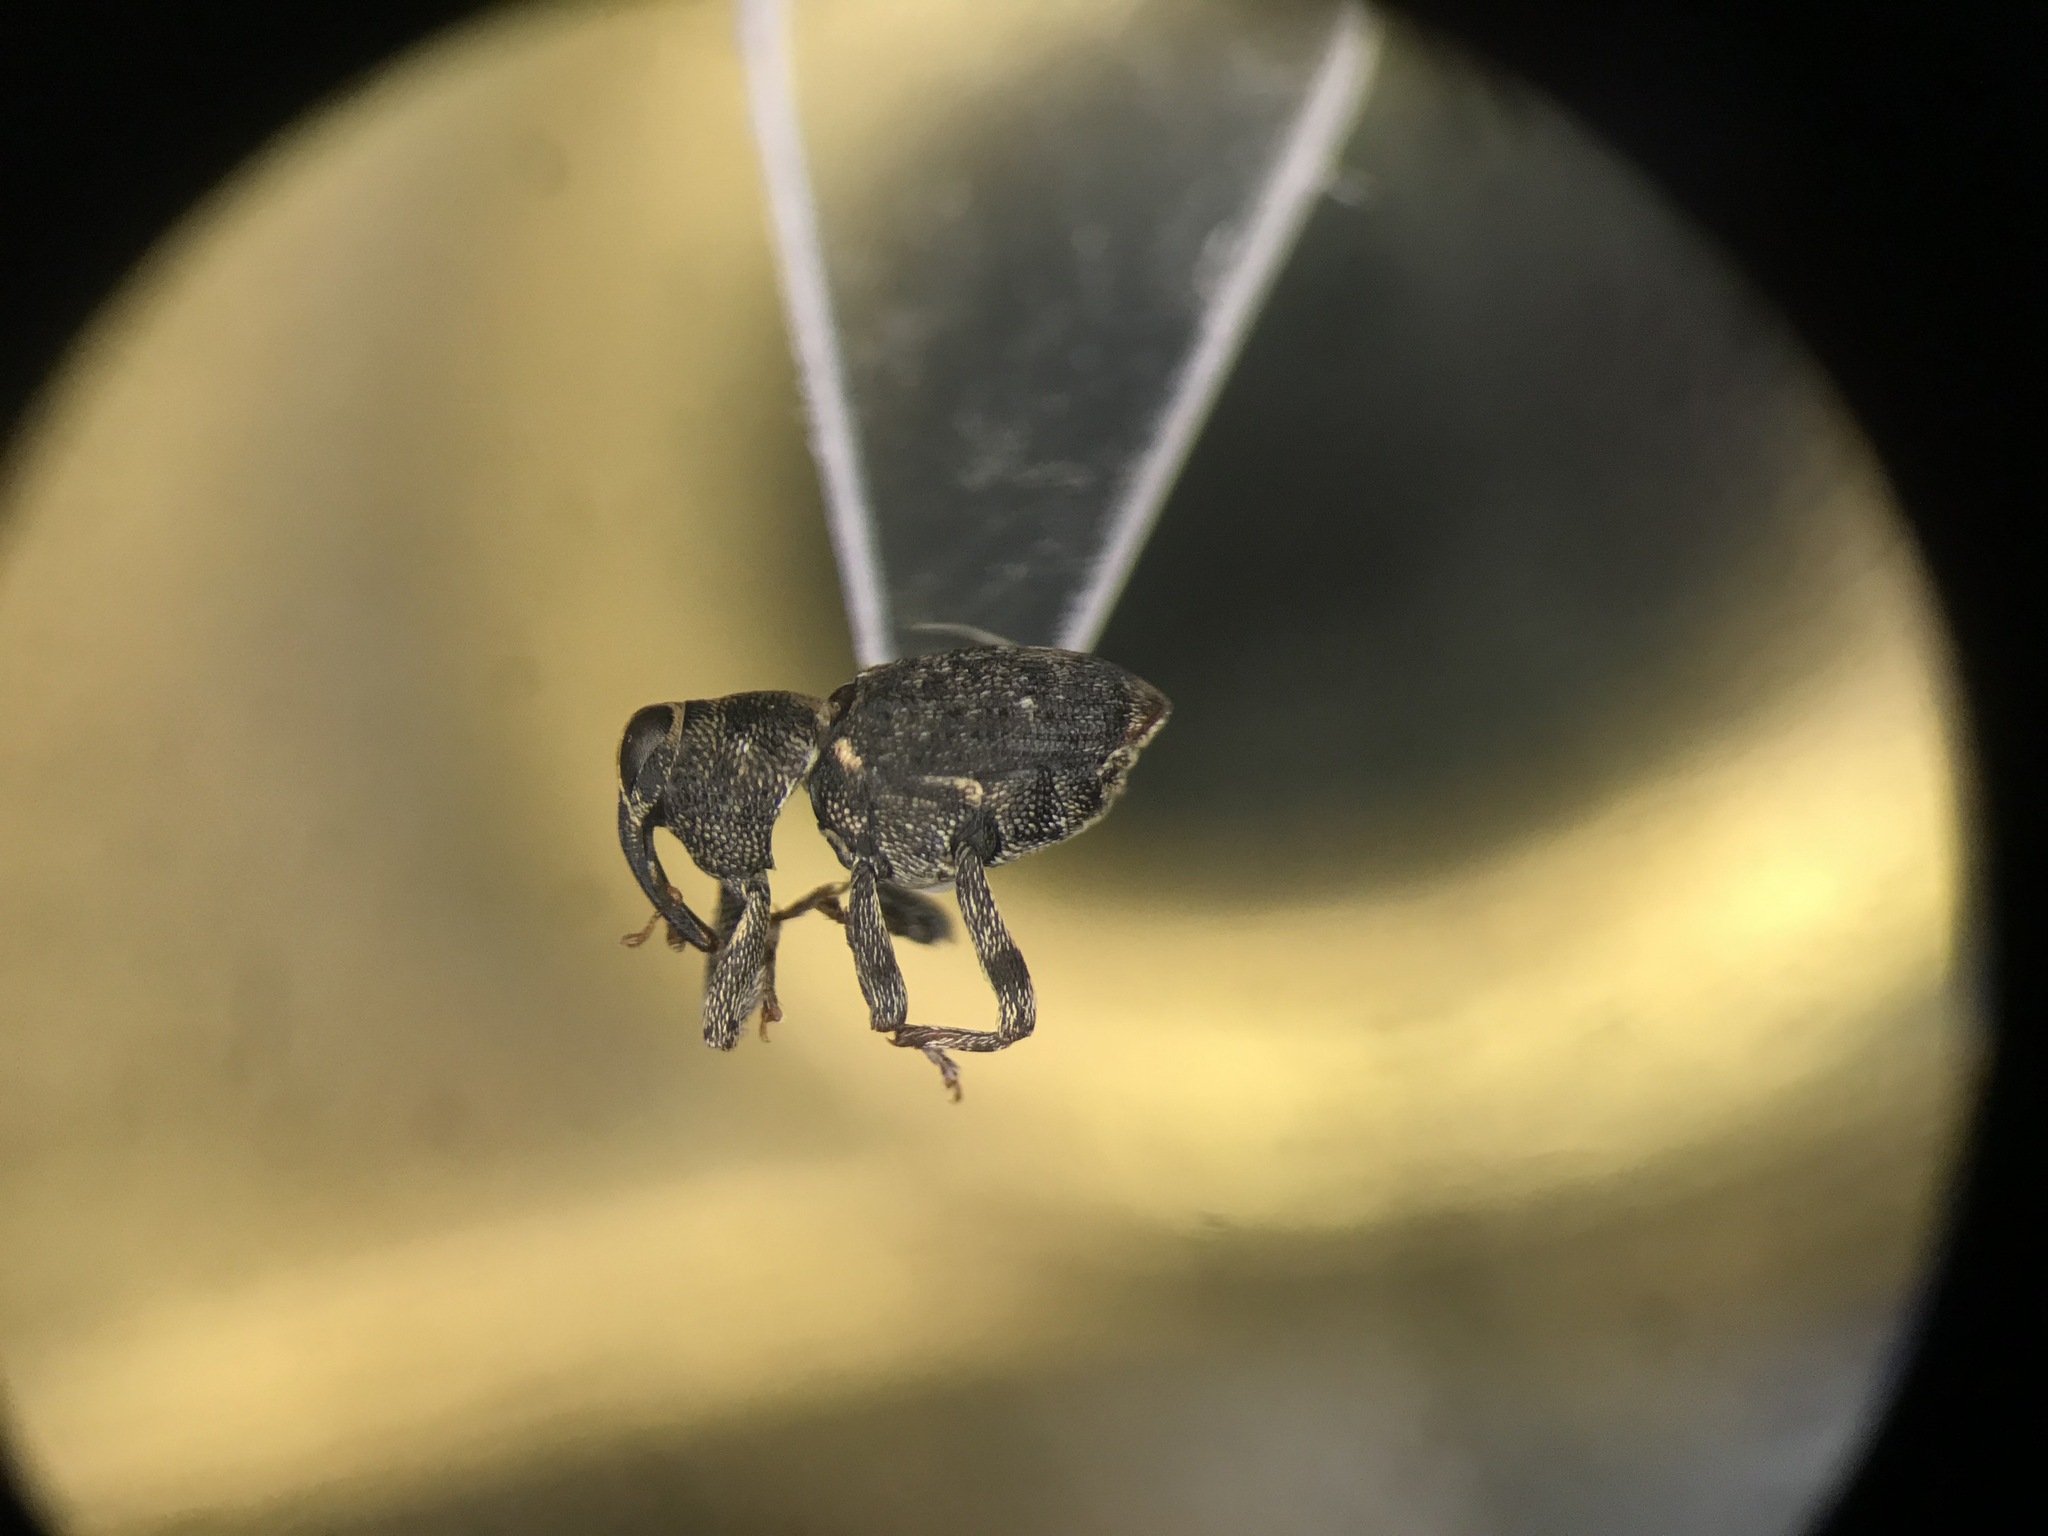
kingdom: Animalia
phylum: Arthropoda
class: Insecta
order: Coleoptera
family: Curculionidae
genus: Lechriops
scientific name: Lechriops oculatus
